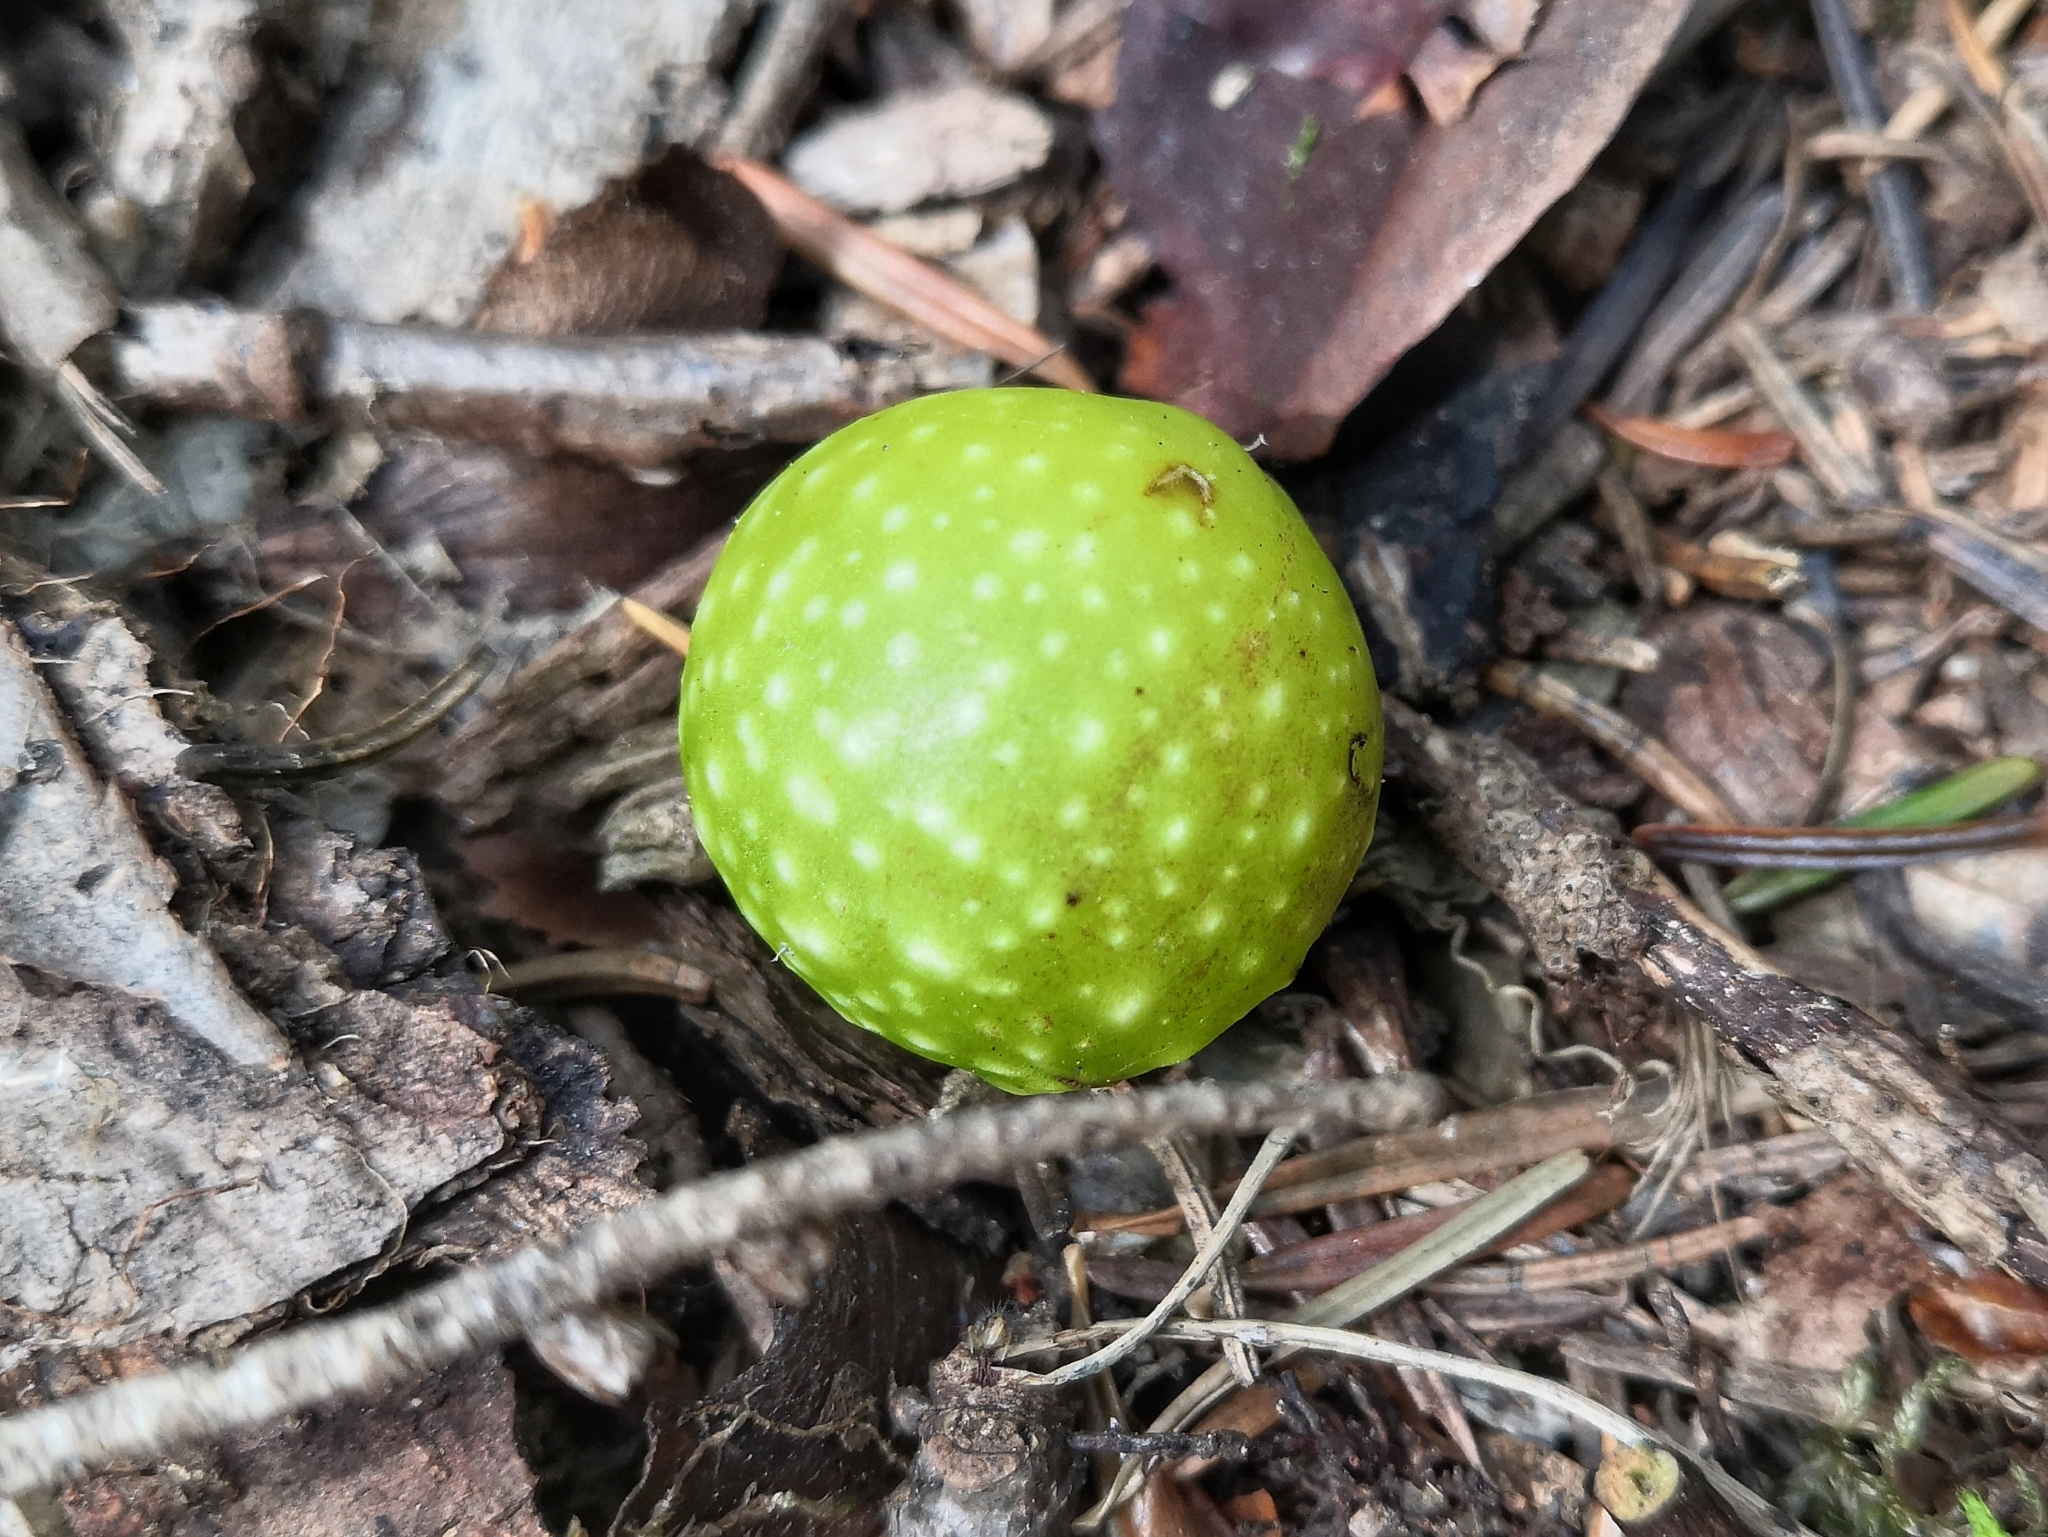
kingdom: Animalia
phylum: Arthropoda
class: Insecta
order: Hymenoptera
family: Cynipidae
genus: Cynips
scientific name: Cynips quercusfolii
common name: Cherry gall
